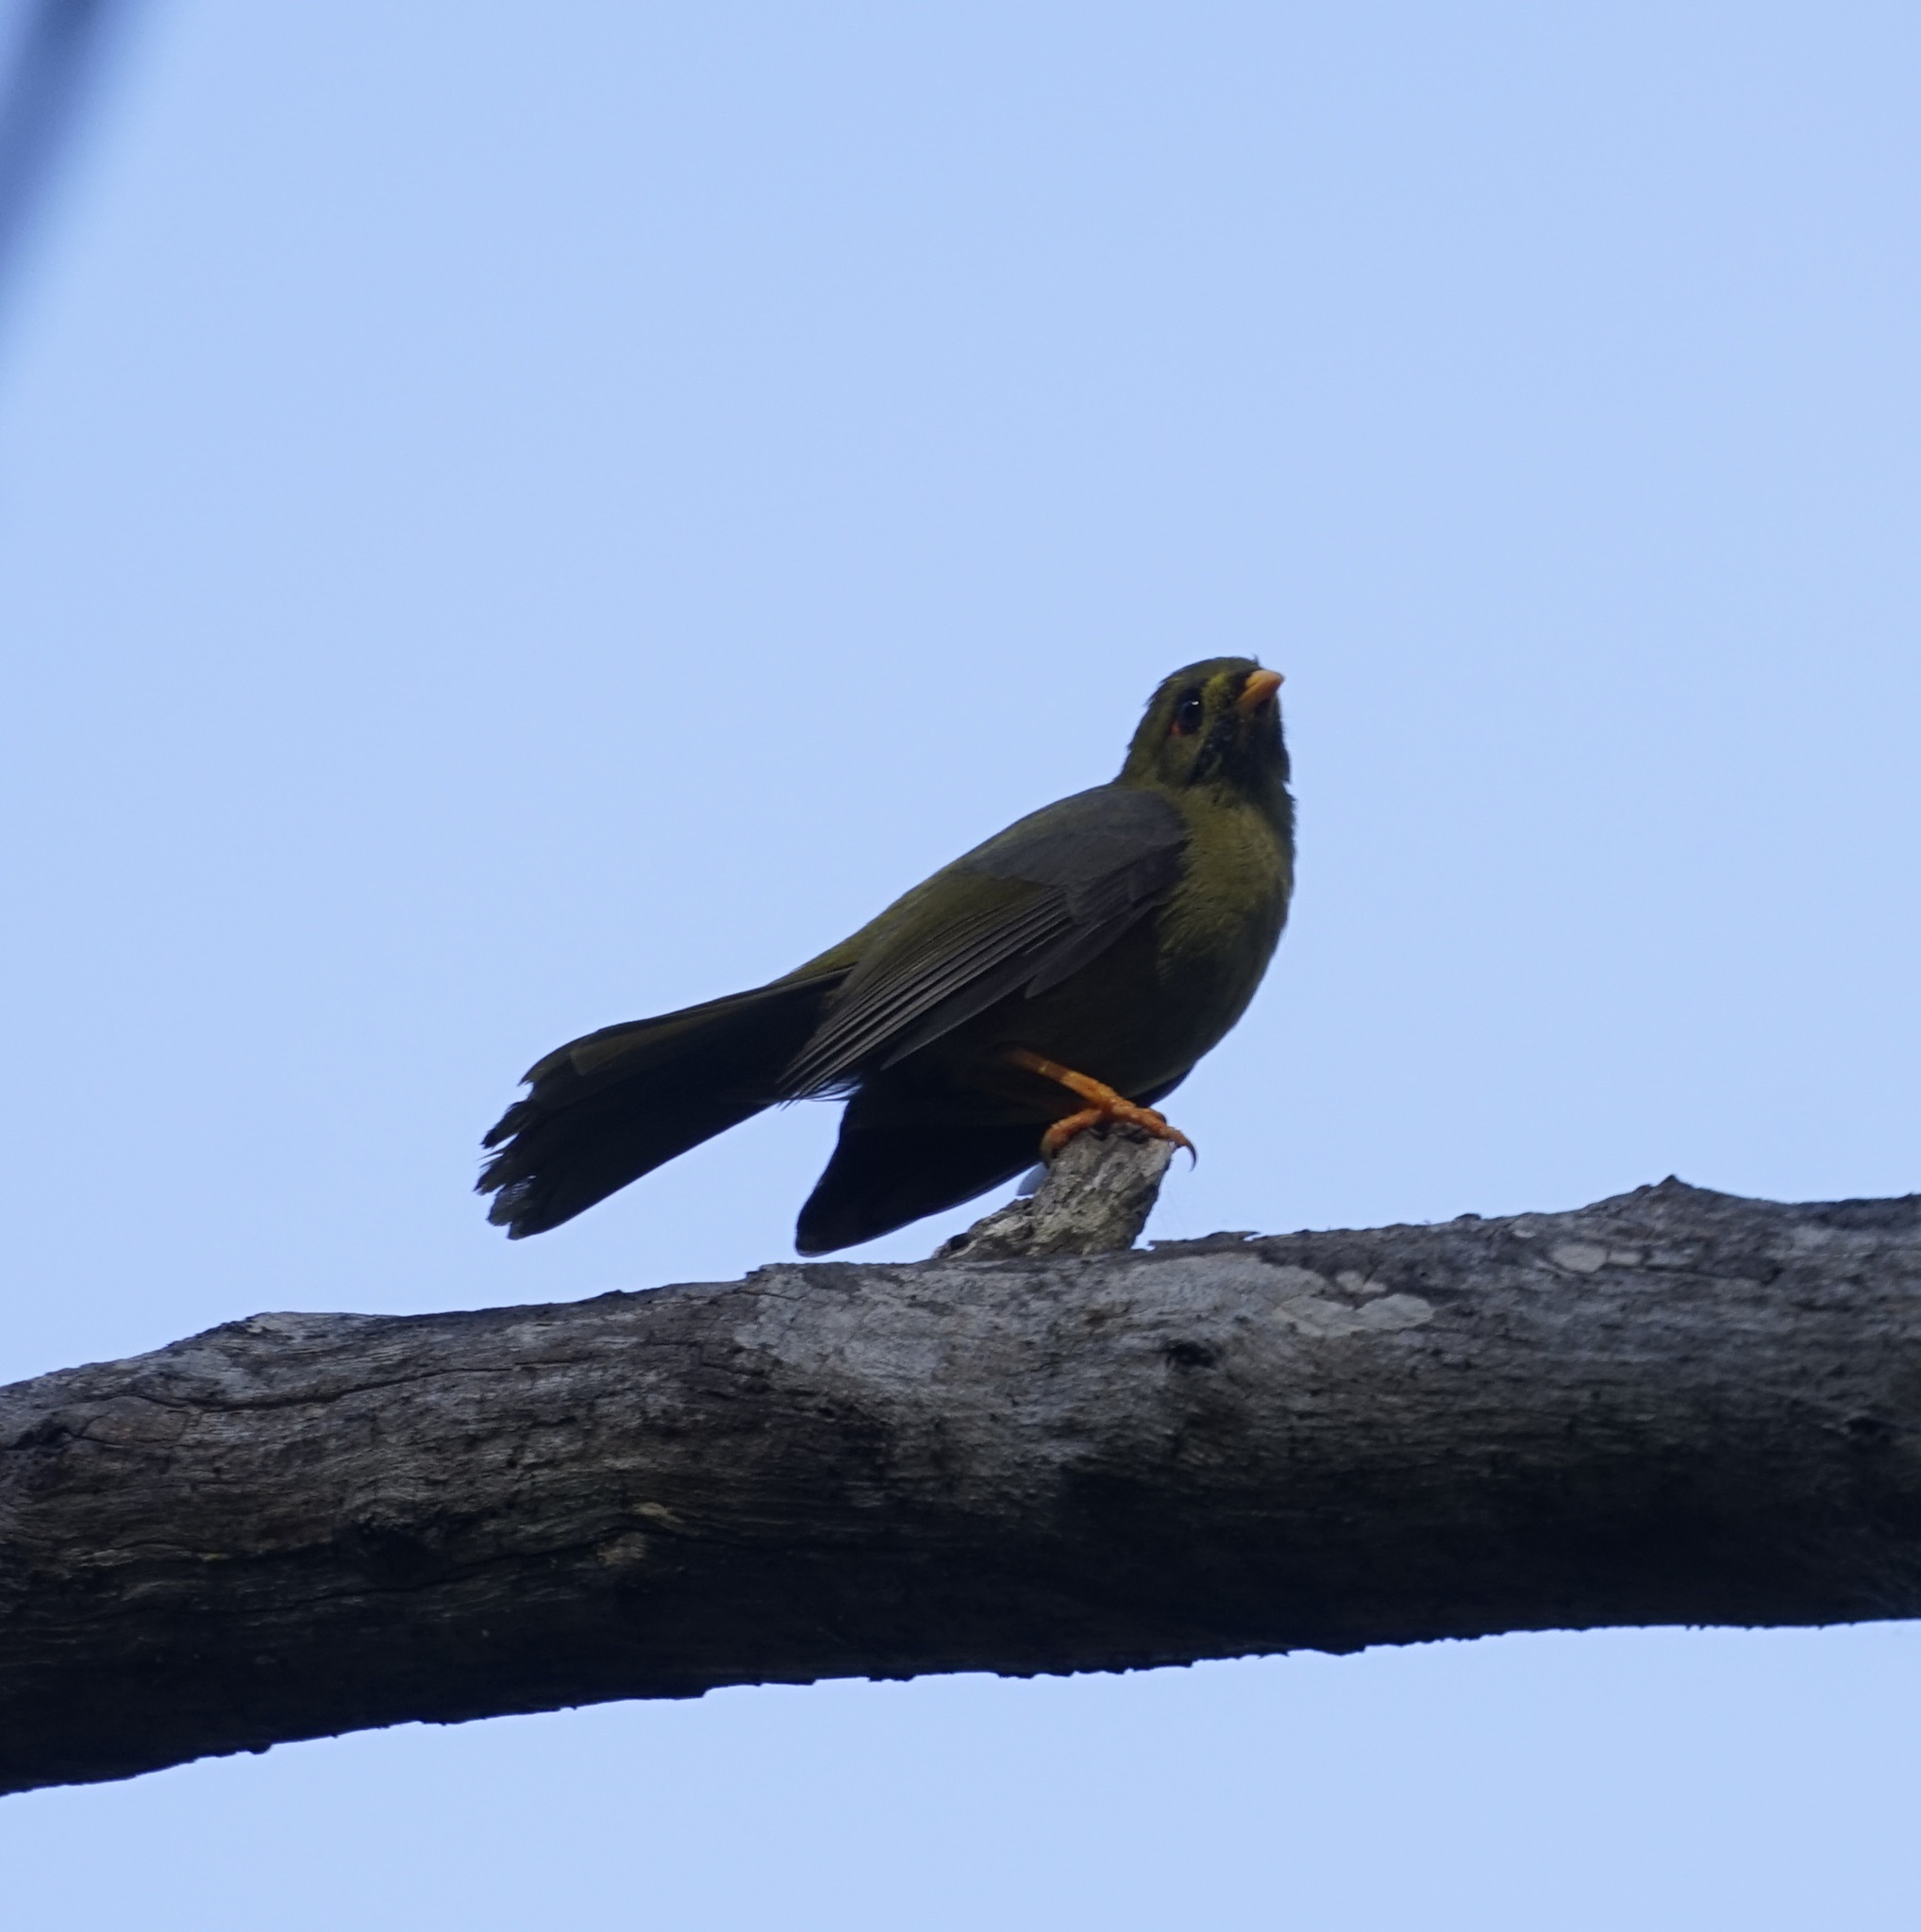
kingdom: Animalia
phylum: Chordata
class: Aves
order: Passeriformes
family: Meliphagidae
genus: Manorina
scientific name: Manorina melanophrys
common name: Bell miner
